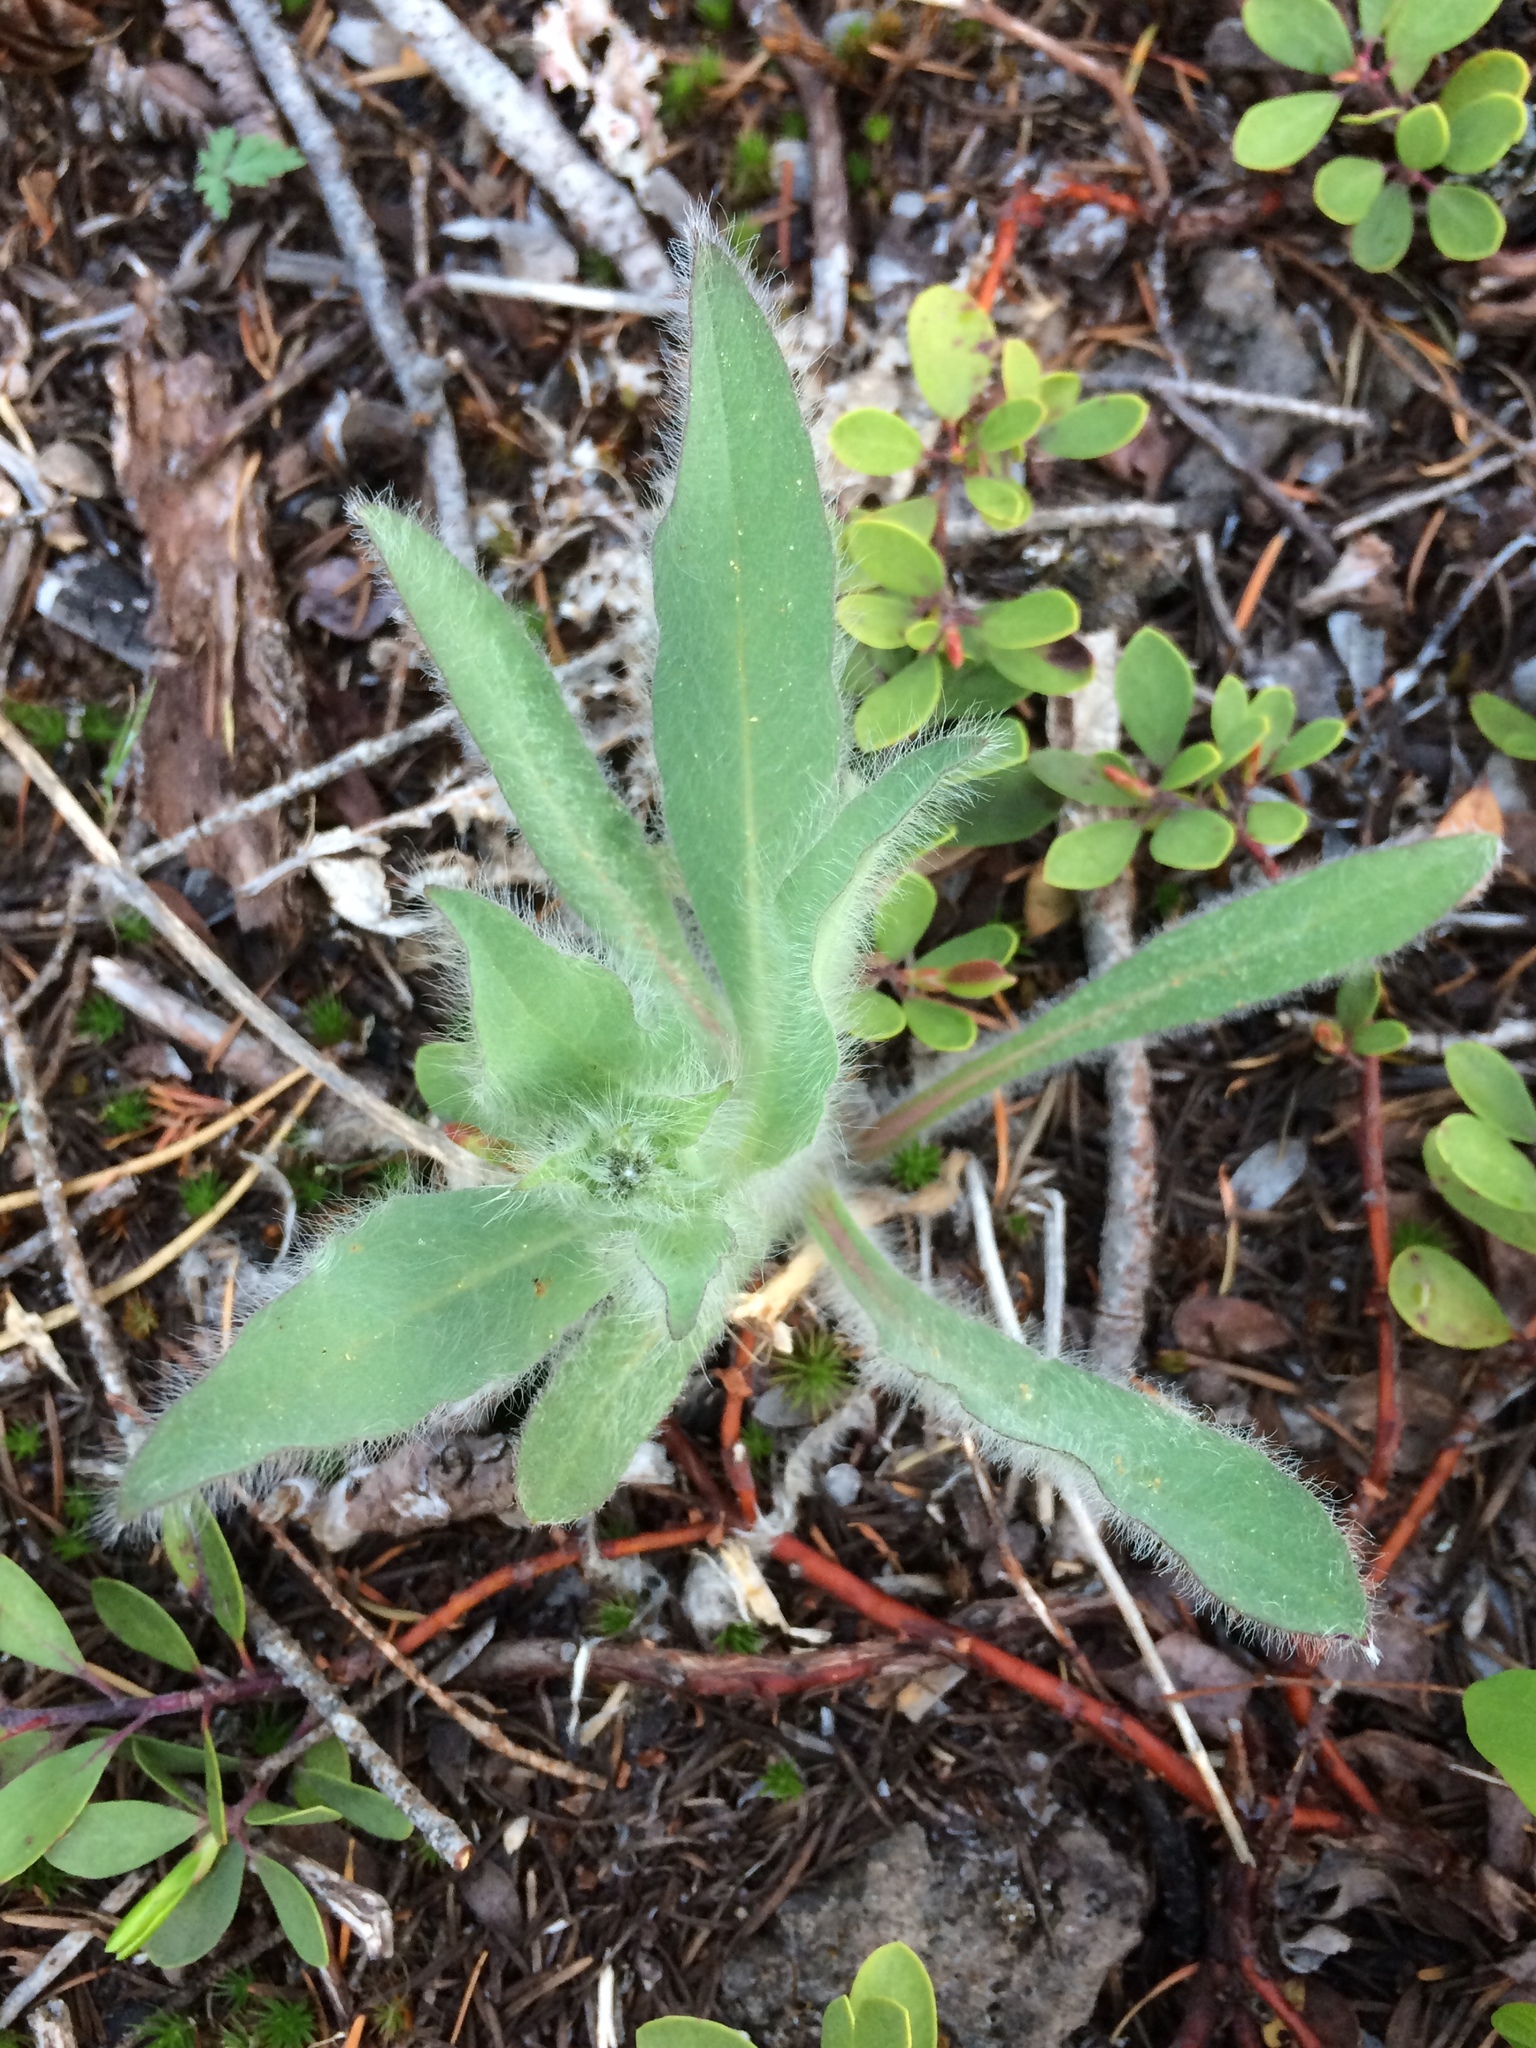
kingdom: Plantae
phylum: Tracheophyta
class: Magnoliopsida
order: Asterales
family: Asteraceae
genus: Hieracium
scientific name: Hieracium scouleri
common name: Hound's-tongue hawkweed
